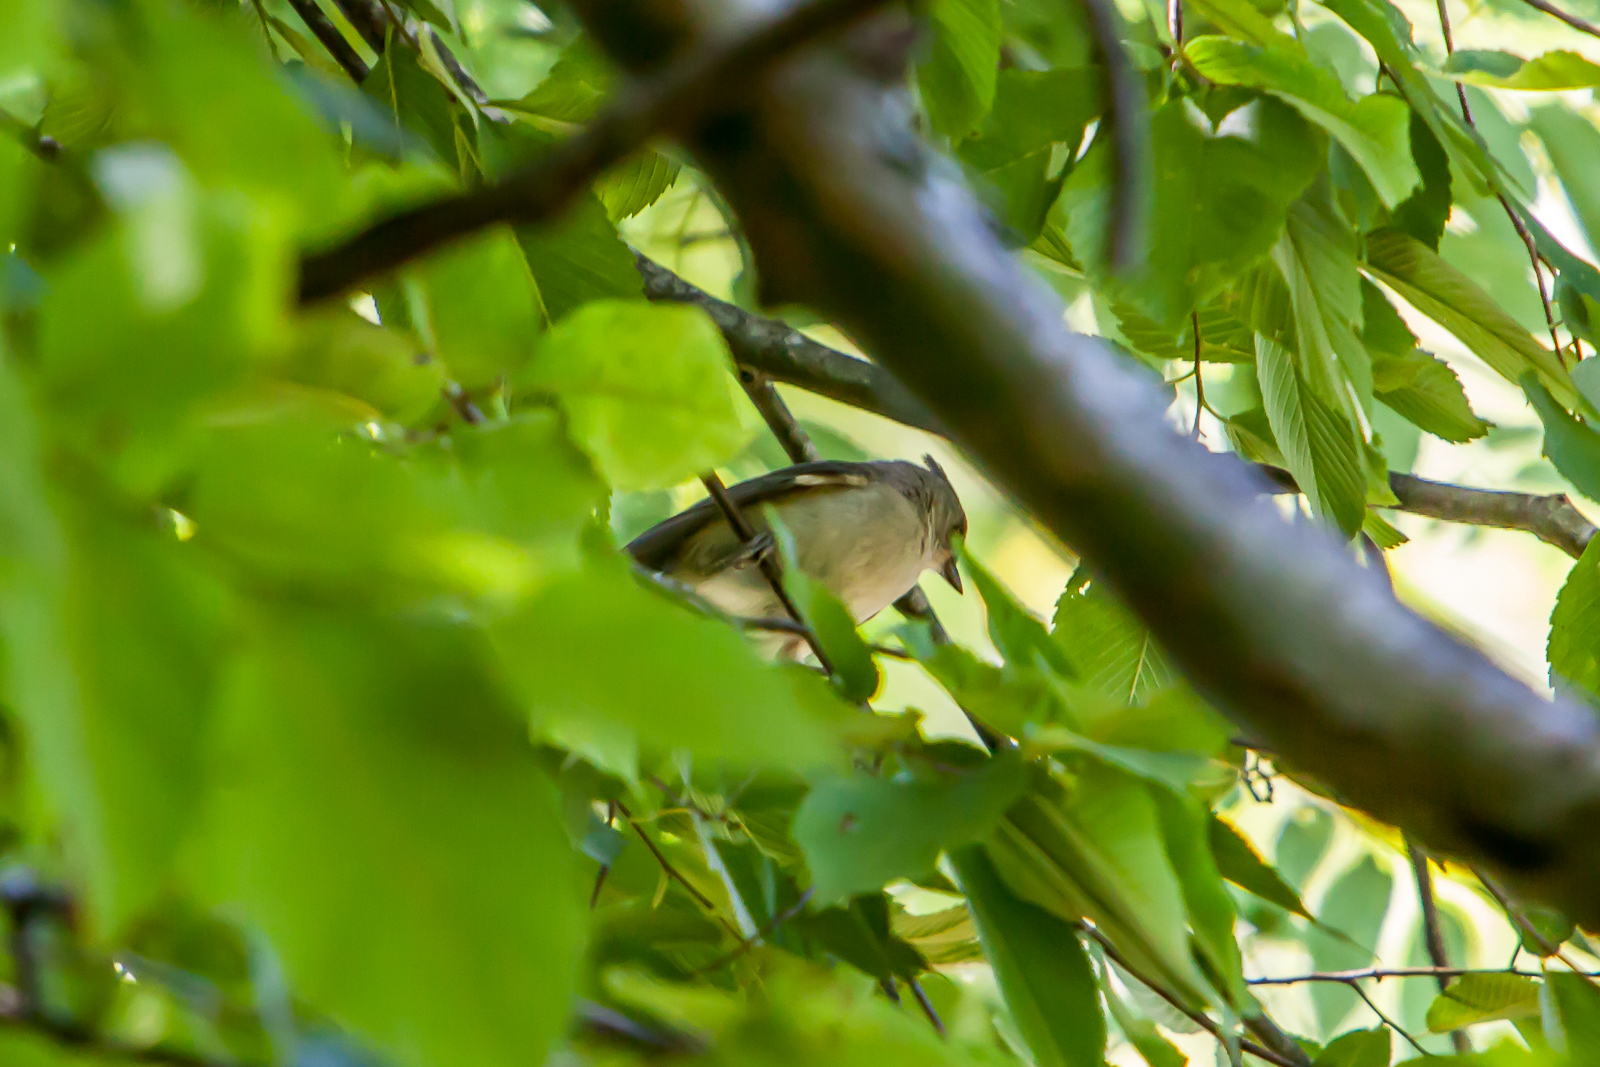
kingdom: Animalia
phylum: Chordata
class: Aves
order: Passeriformes
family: Paridae
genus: Baeolophus
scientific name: Baeolophus bicolor
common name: Tufted titmouse
